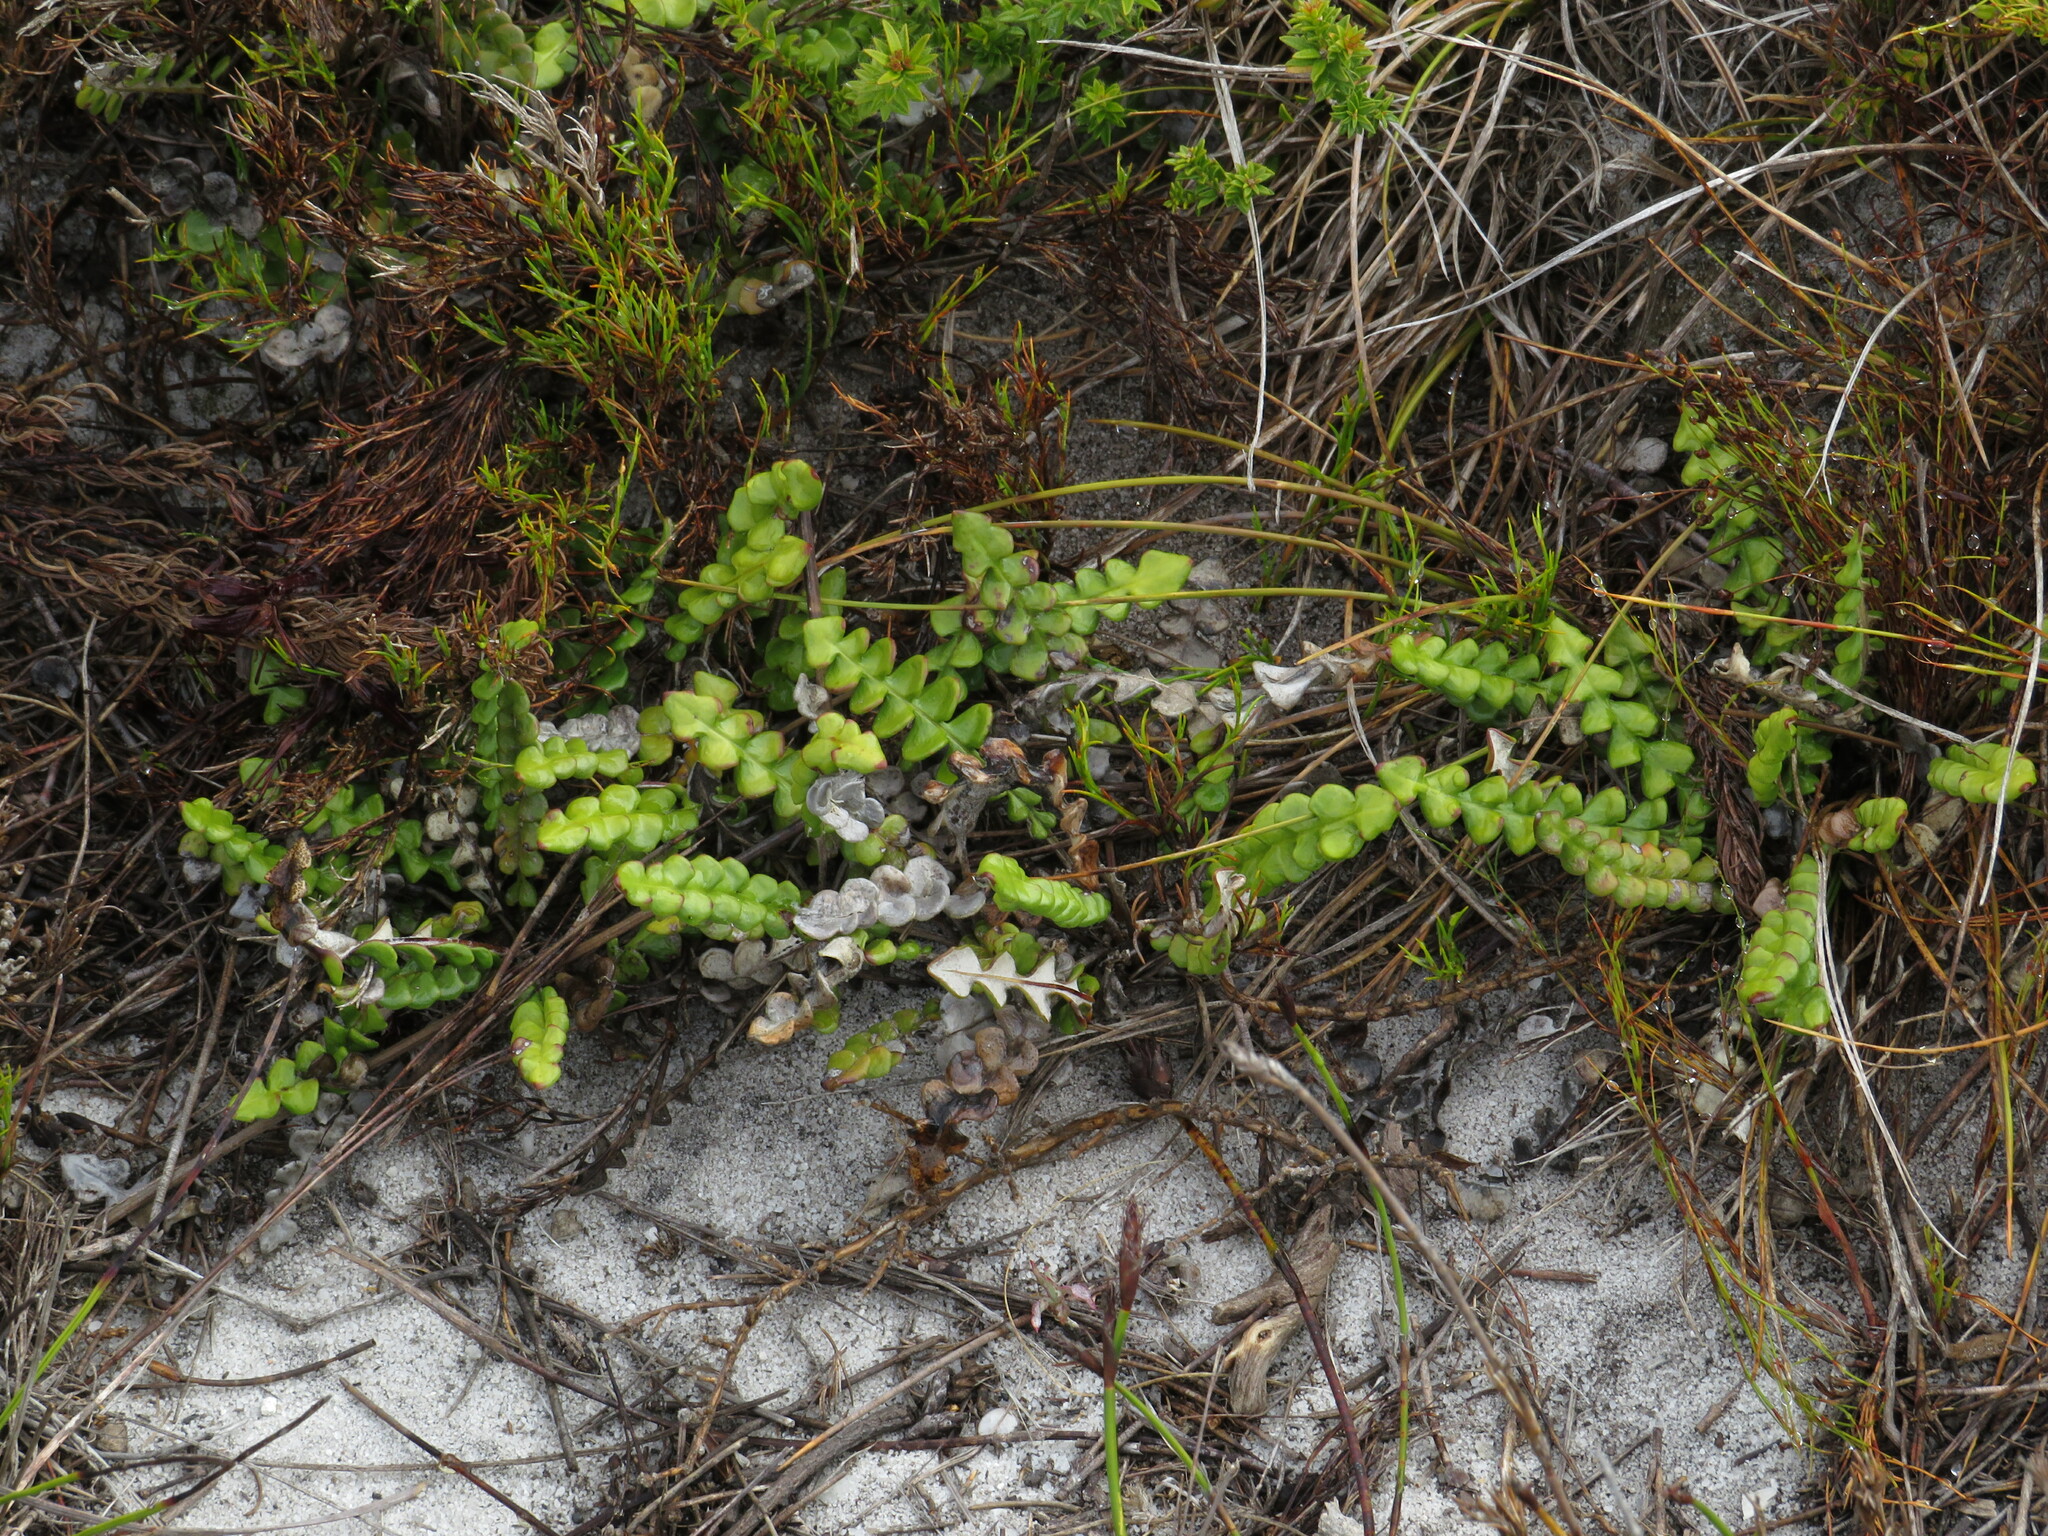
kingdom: Plantae
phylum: Tracheophyta
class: Magnoliopsida
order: Asterales
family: Asteraceae
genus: Gerbera
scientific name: Gerbera linnaei
